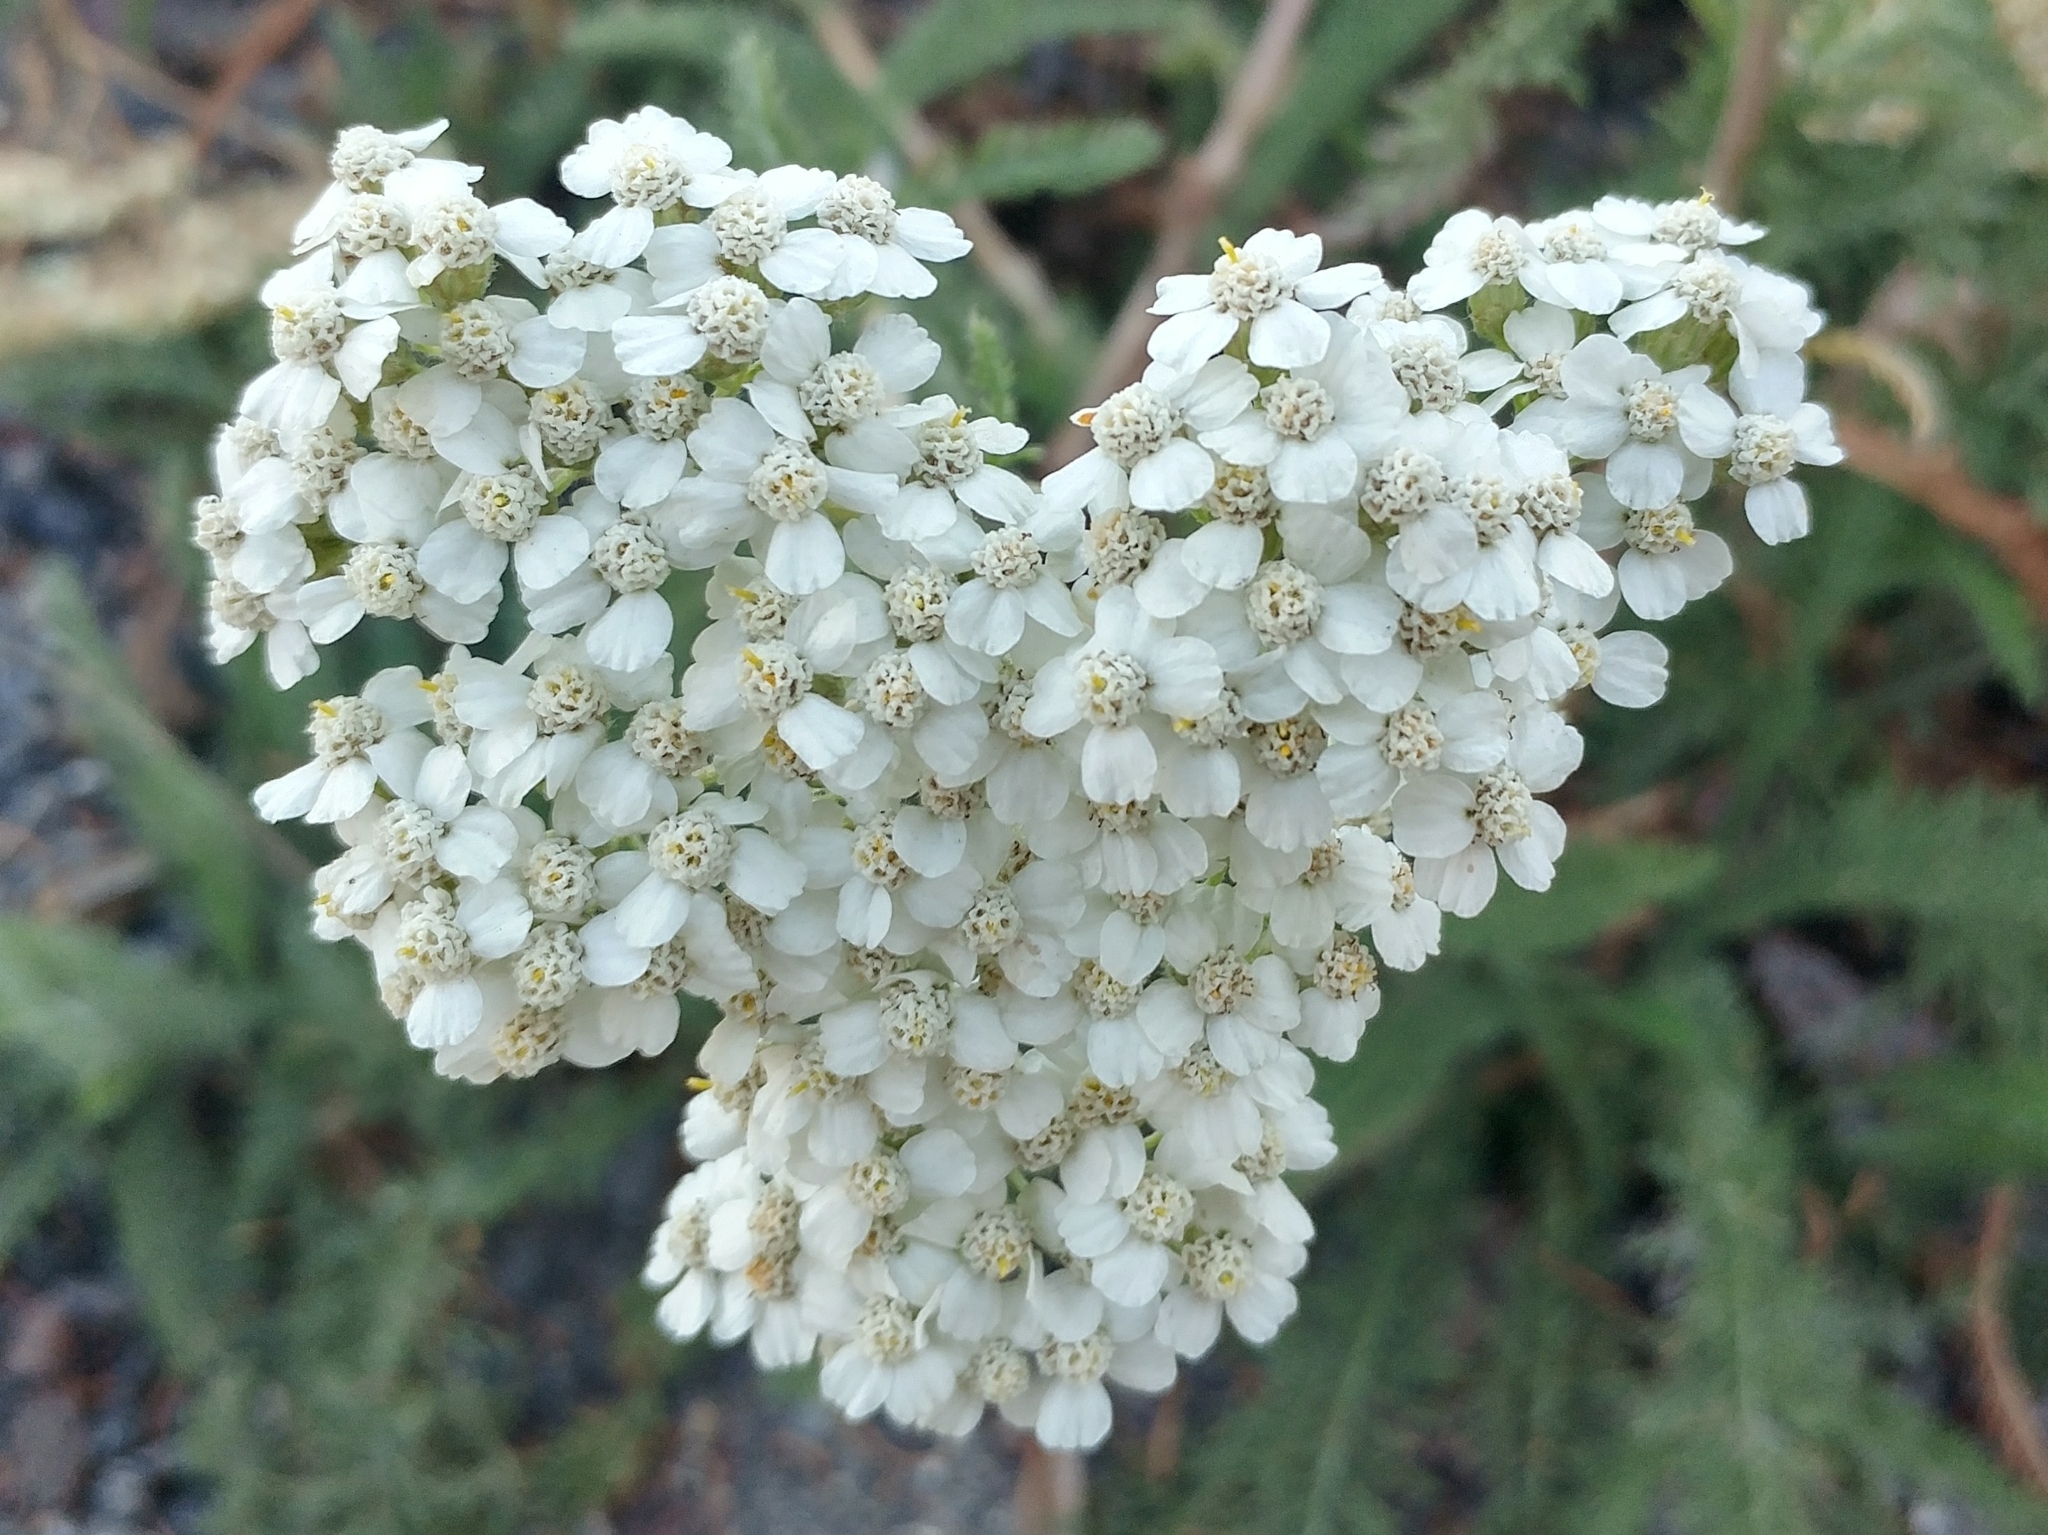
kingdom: Plantae
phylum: Tracheophyta
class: Magnoliopsida
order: Asterales
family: Asteraceae
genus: Achillea
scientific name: Achillea millefolium
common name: Yarrow
